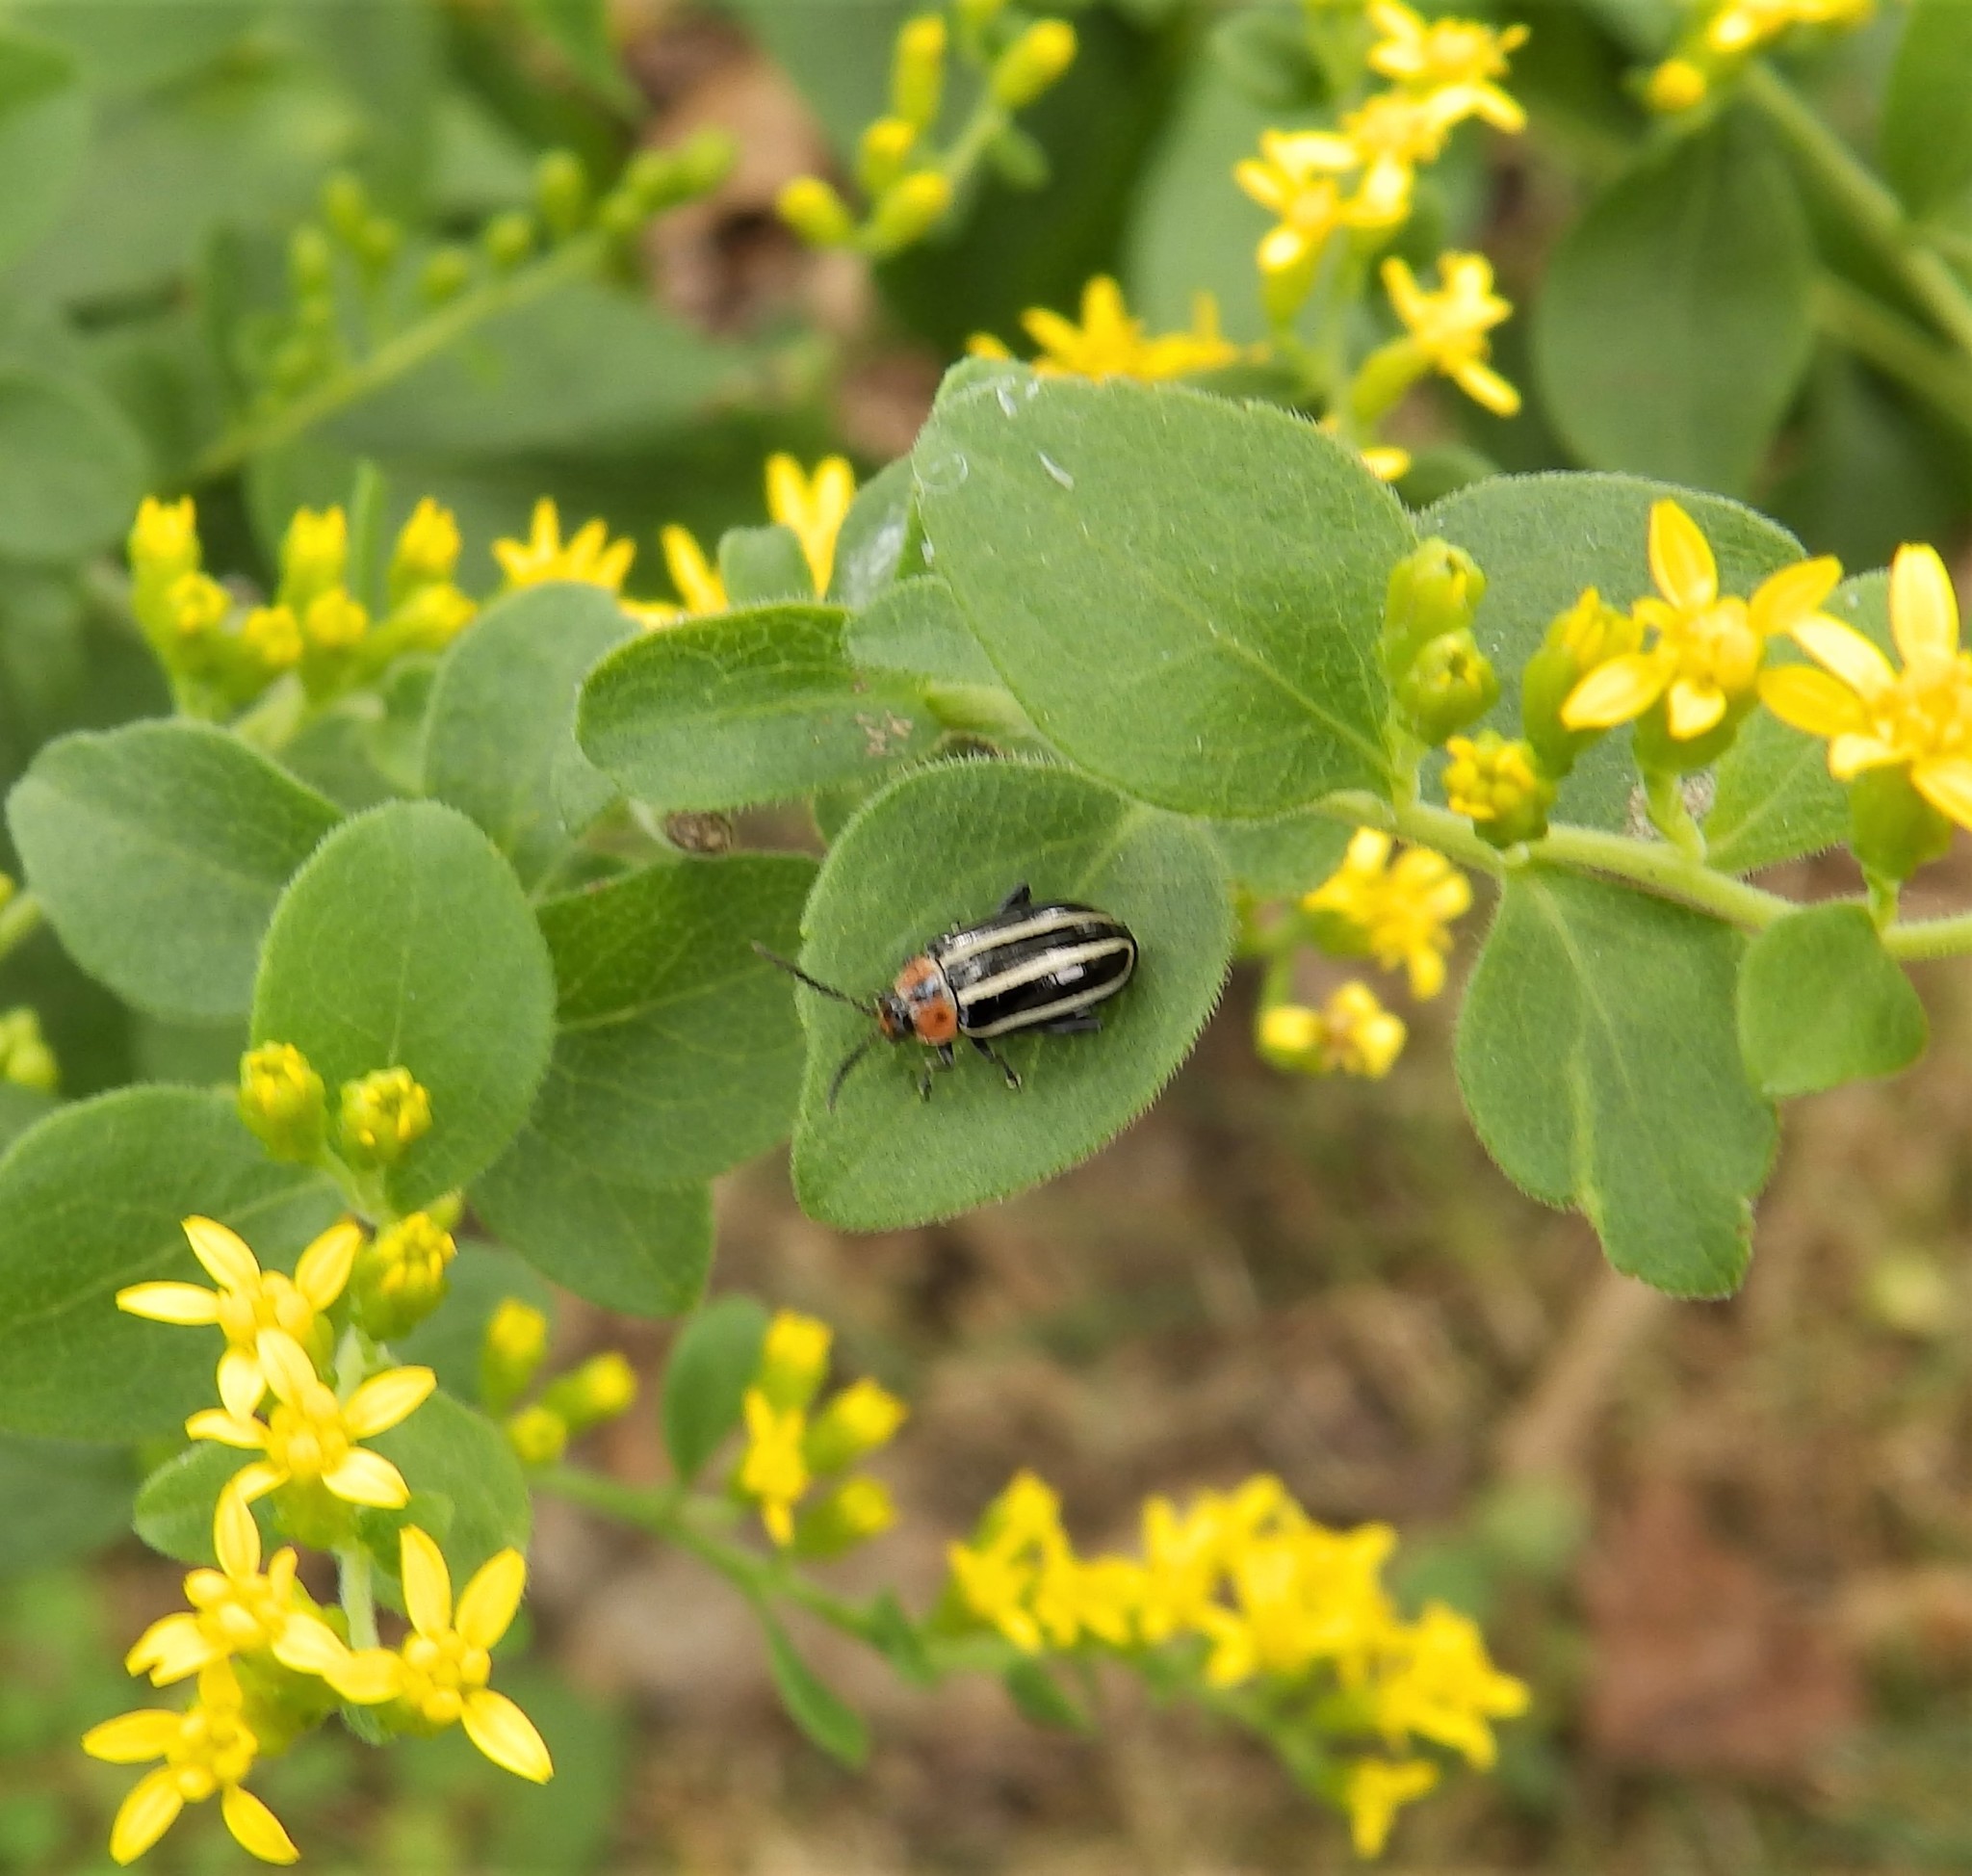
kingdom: Animalia
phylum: Arthropoda
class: Insecta
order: Coleoptera
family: Chrysomelidae
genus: Disonycha
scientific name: Disonycha glabrata
